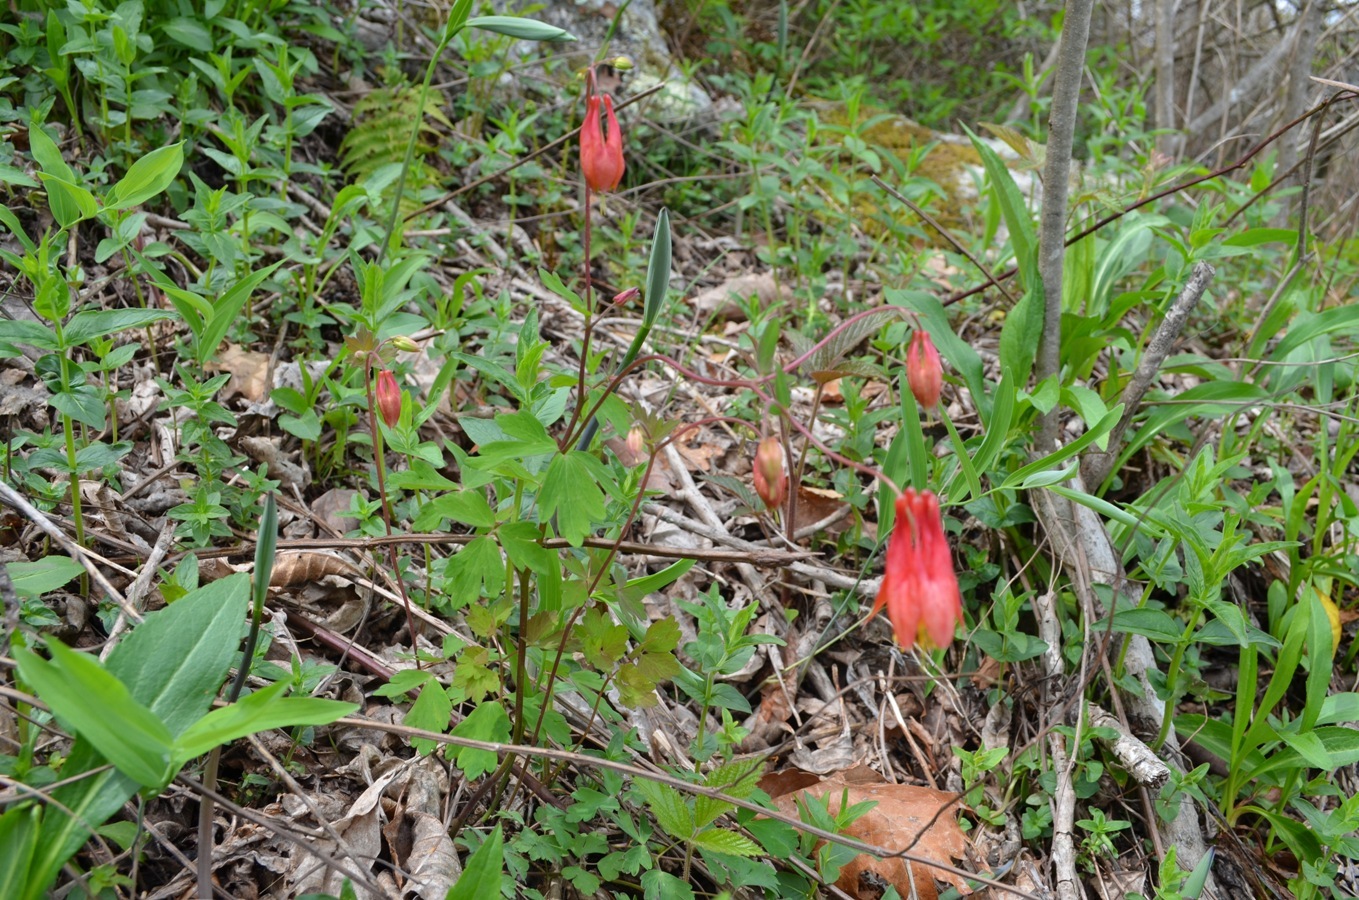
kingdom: Plantae
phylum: Tracheophyta
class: Magnoliopsida
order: Ranunculales
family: Ranunculaceae
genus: Aquilegia
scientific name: Aquilegia canadensis
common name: American columbine
